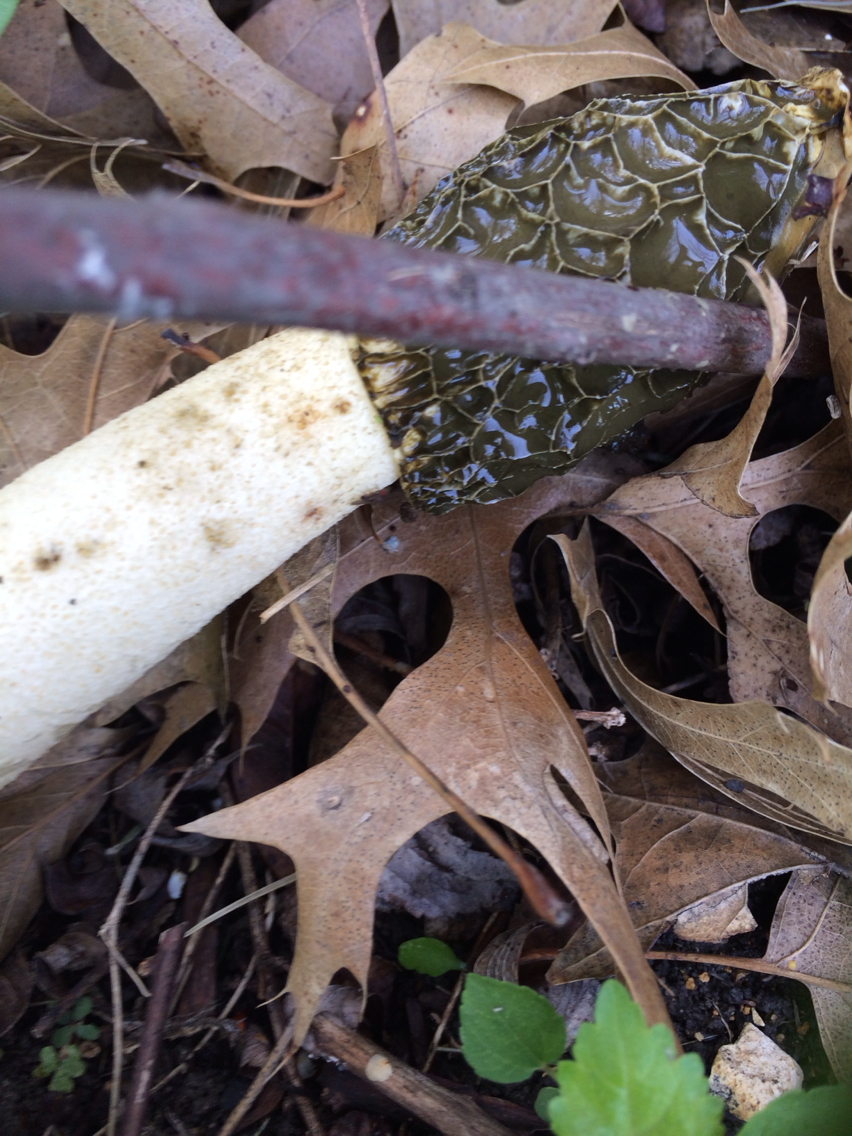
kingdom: Fungi
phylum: Basidiomycota
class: Agaricomycetes
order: Phallales
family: Phallaceae
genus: Phallus
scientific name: Phallus
